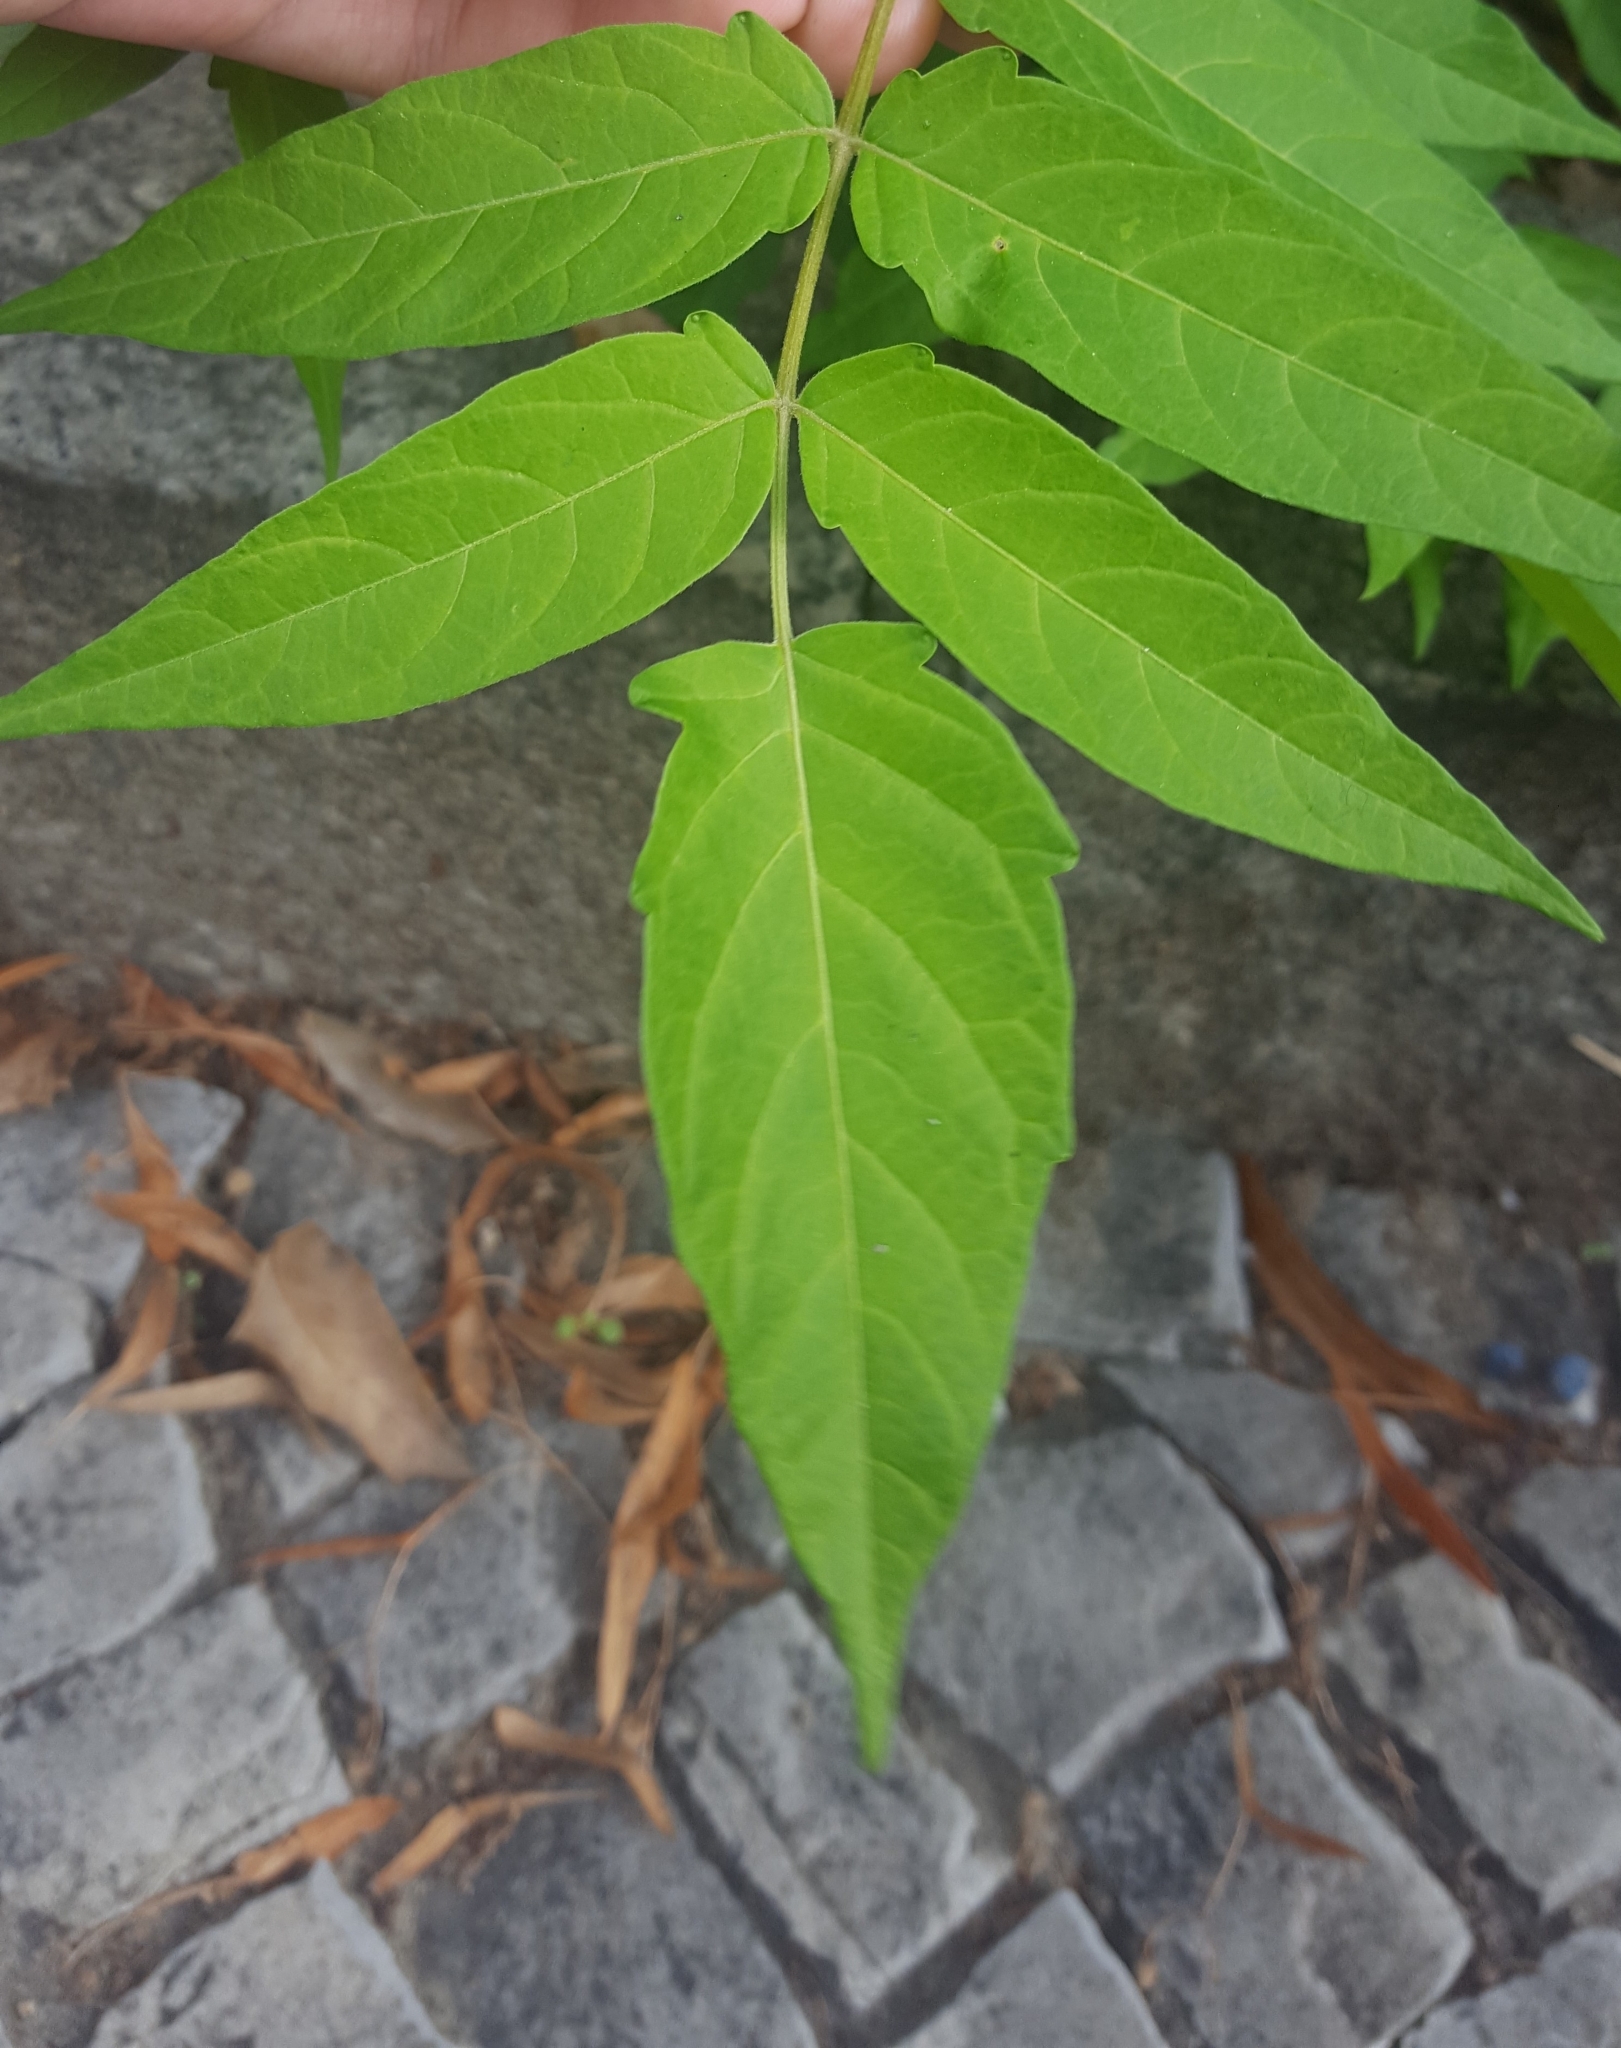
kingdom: Plantae
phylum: Tracheophyta
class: Magnoliopsida
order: Sapindales
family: Simaroubaceae
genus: Ailanthus
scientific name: Ailanthus altissima
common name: Tree-of-heaven
